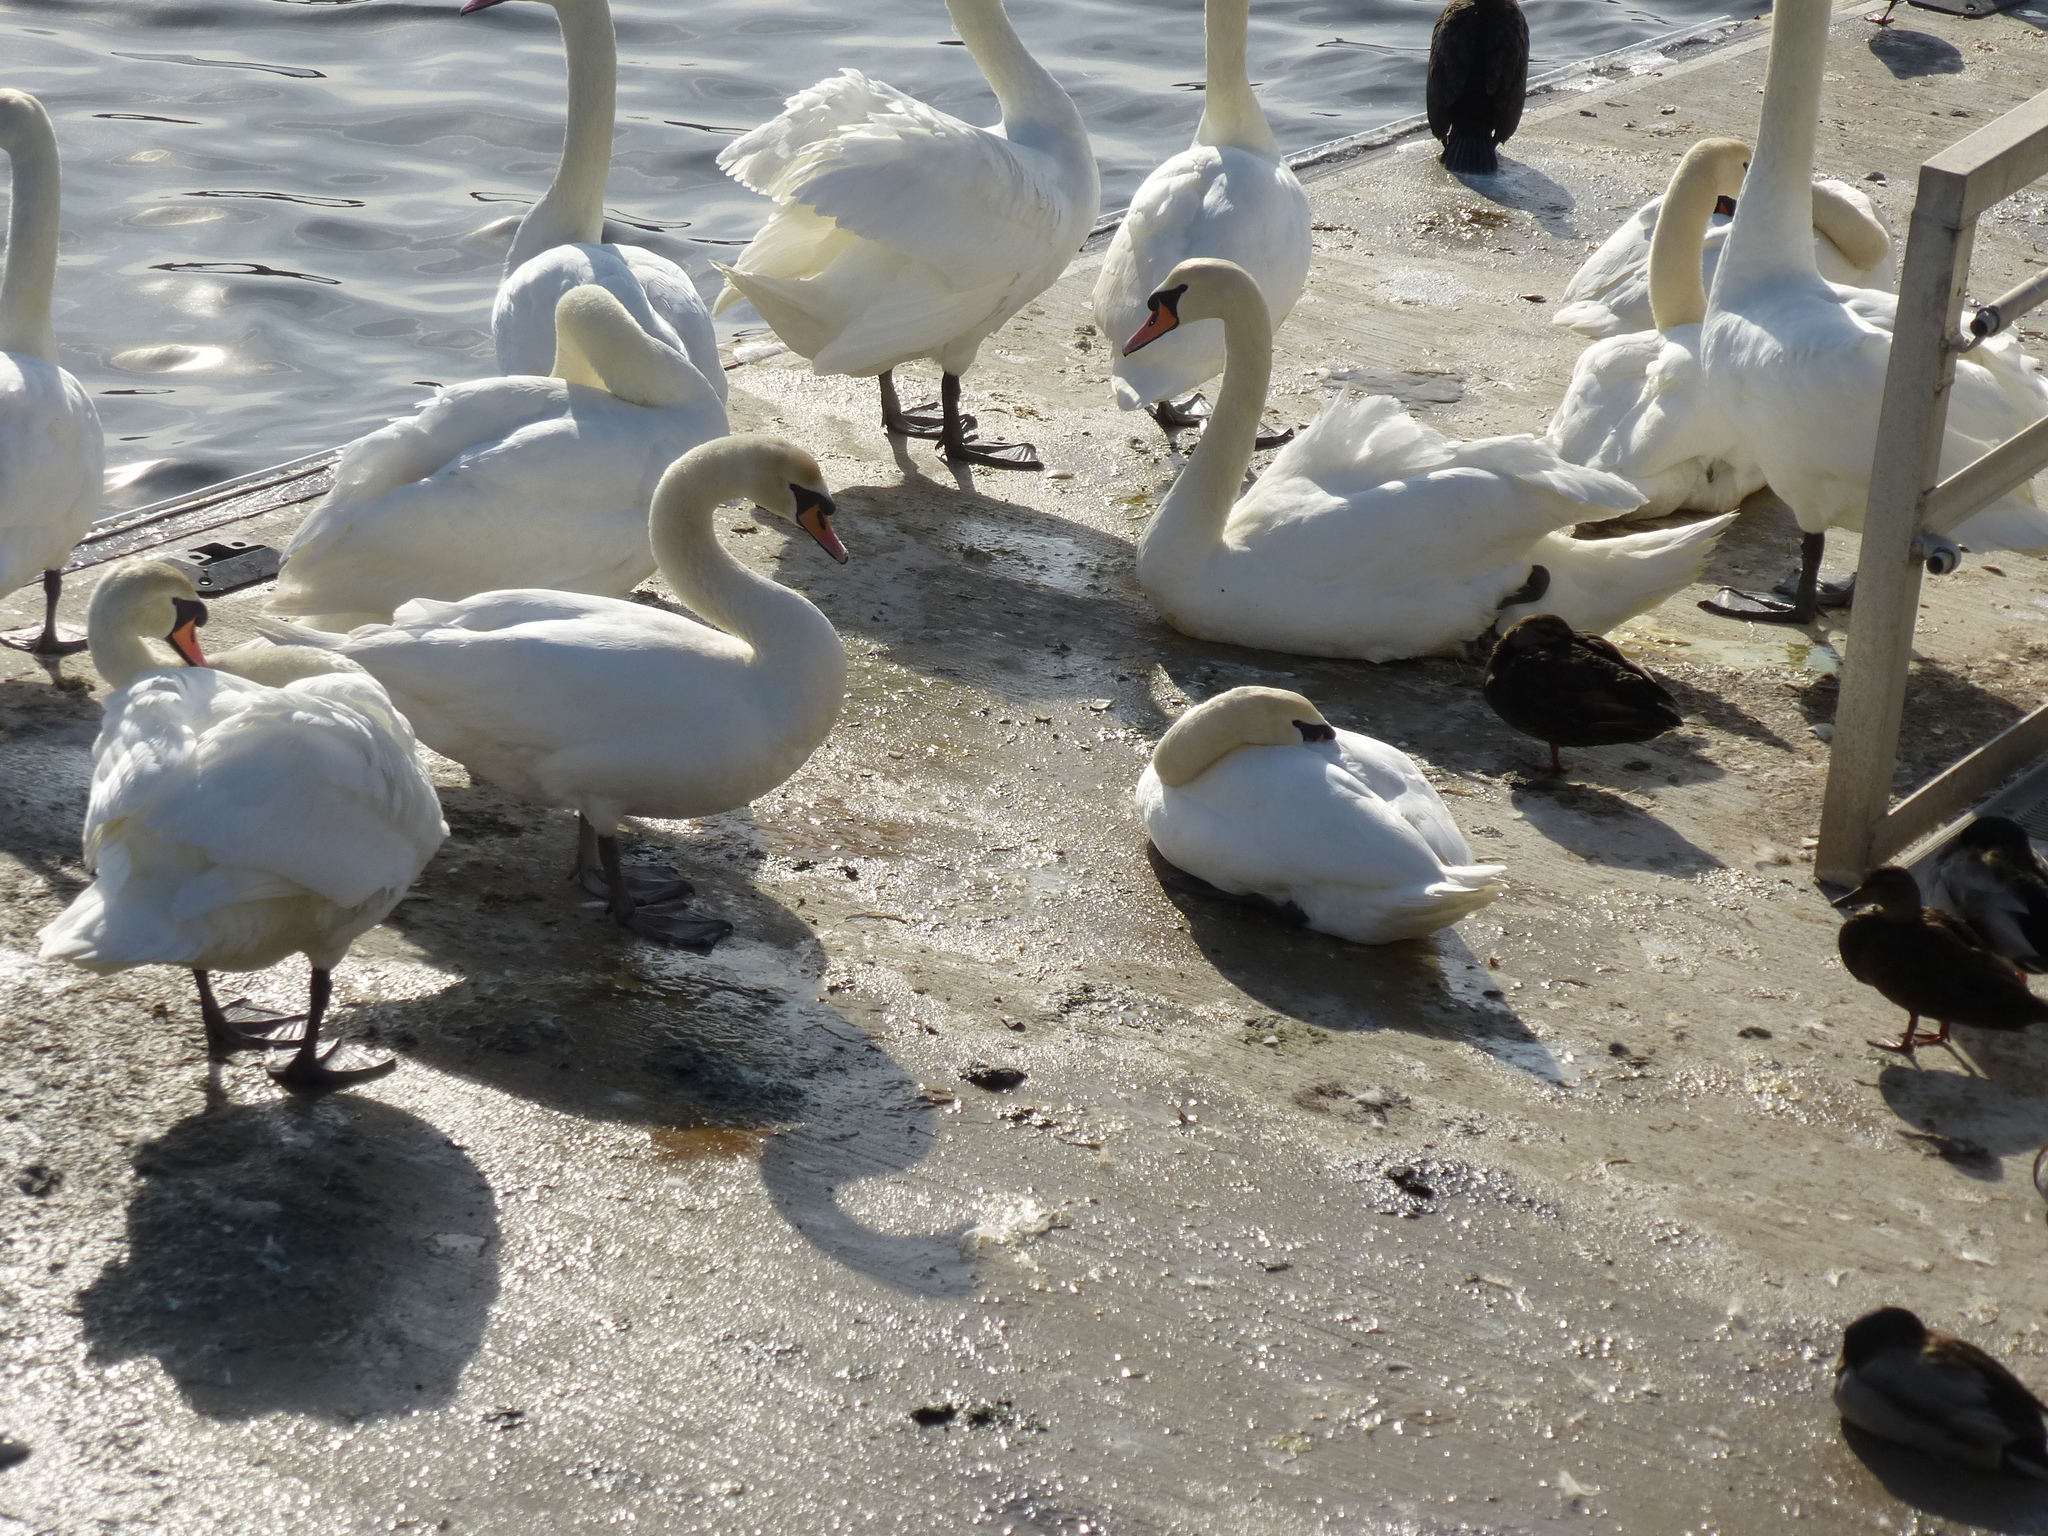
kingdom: Animalia
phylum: Chordata
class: Aves
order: Anseriformes
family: Anatidae
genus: Cygnus
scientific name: Cygnus olor
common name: Mute swan
